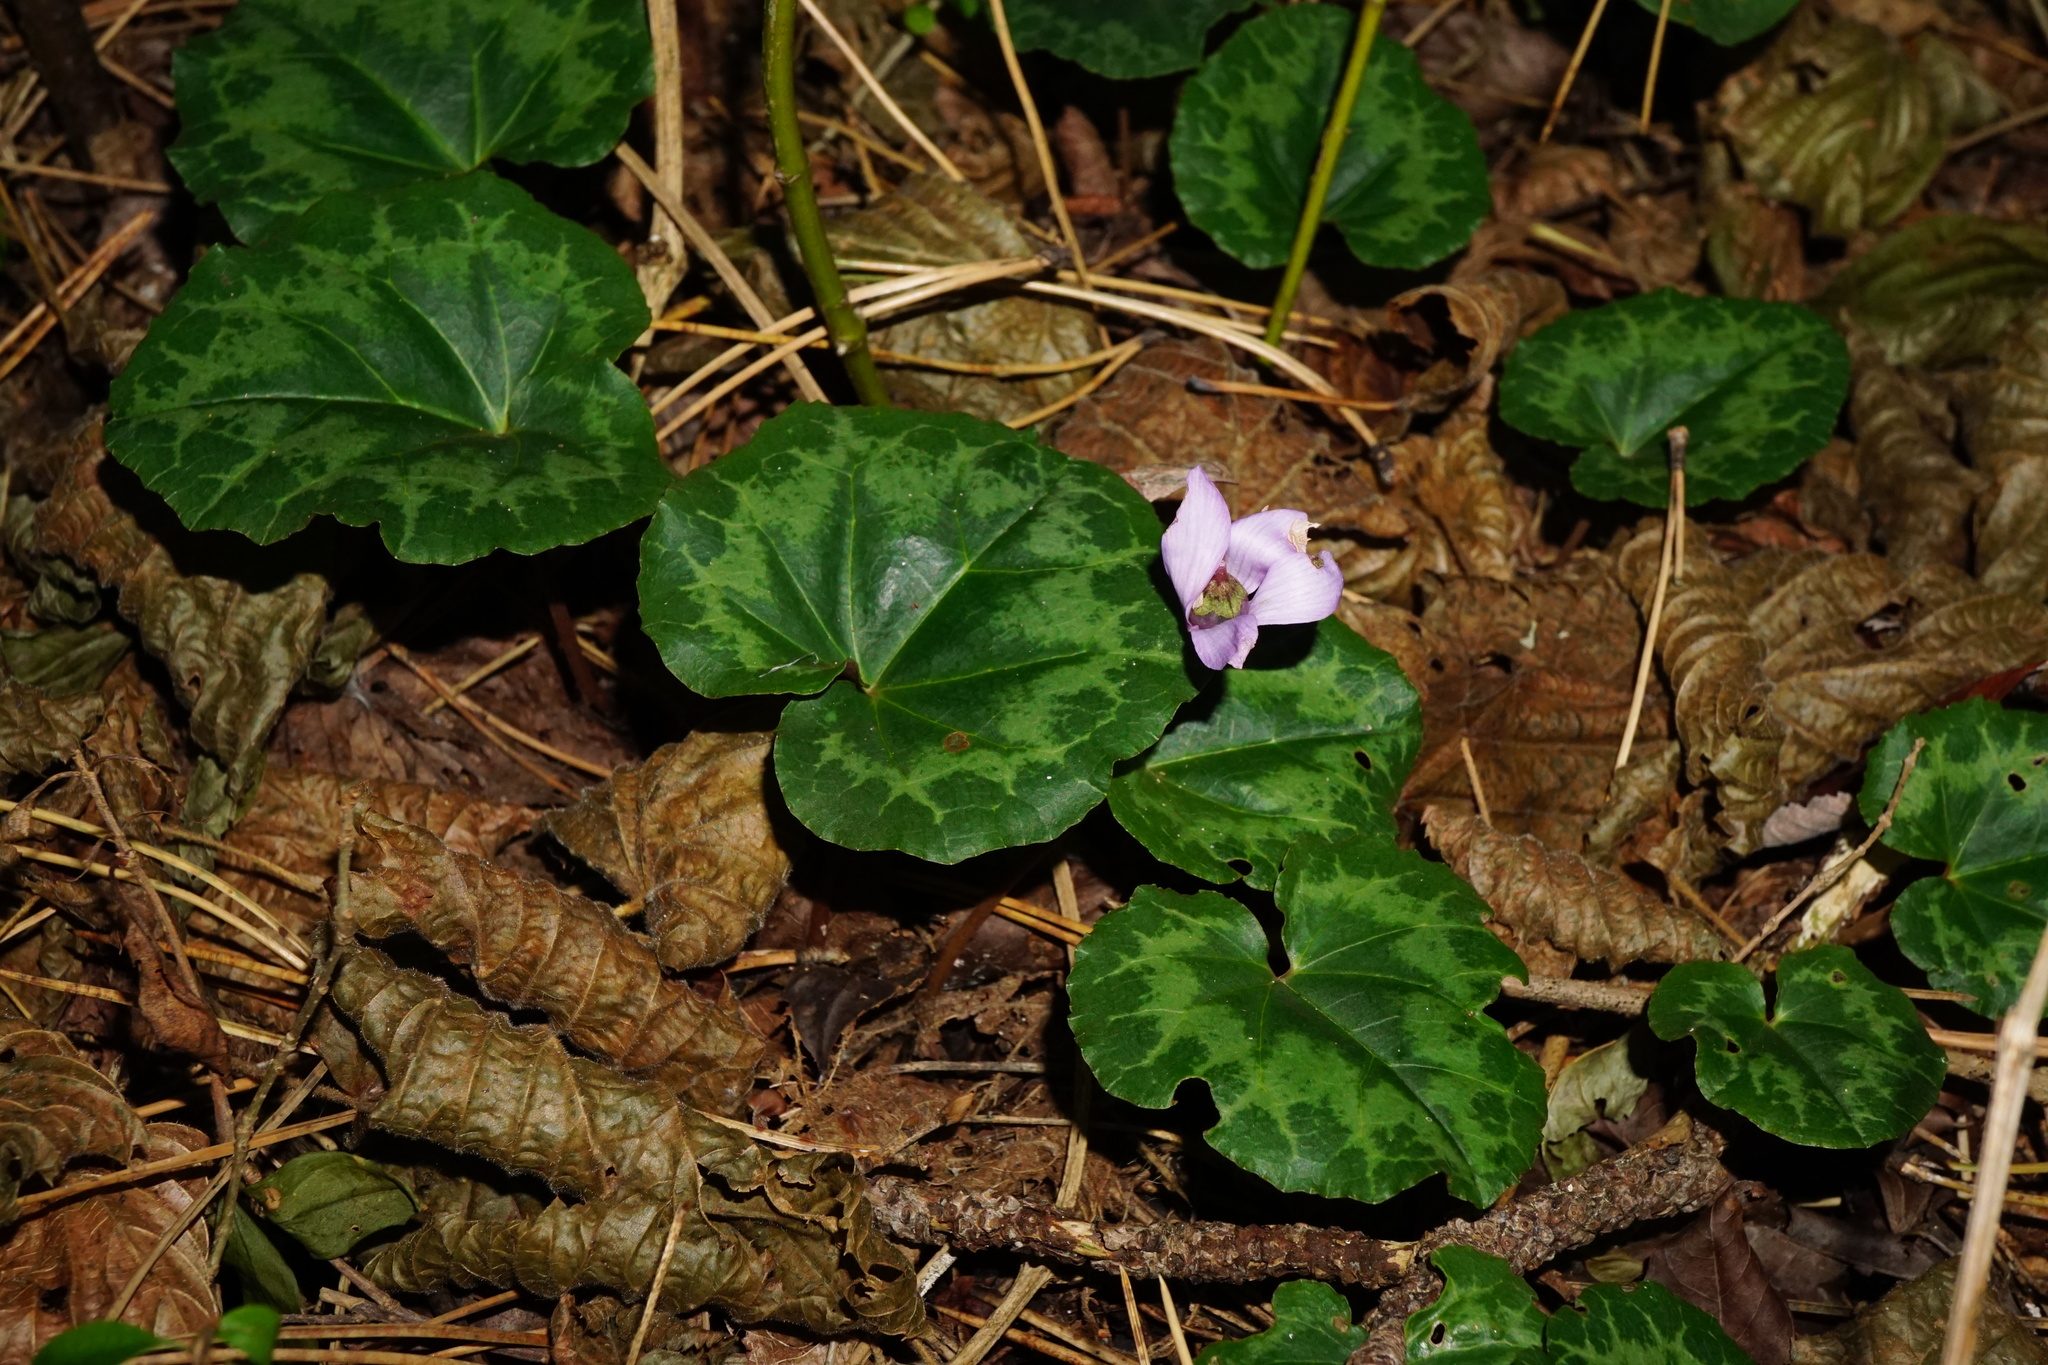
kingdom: Plantae
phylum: Tracheophyta
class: Magnoliopsida
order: Ericales
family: Primulaceae
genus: Cyclamen
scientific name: Cyclamen purpurascens
